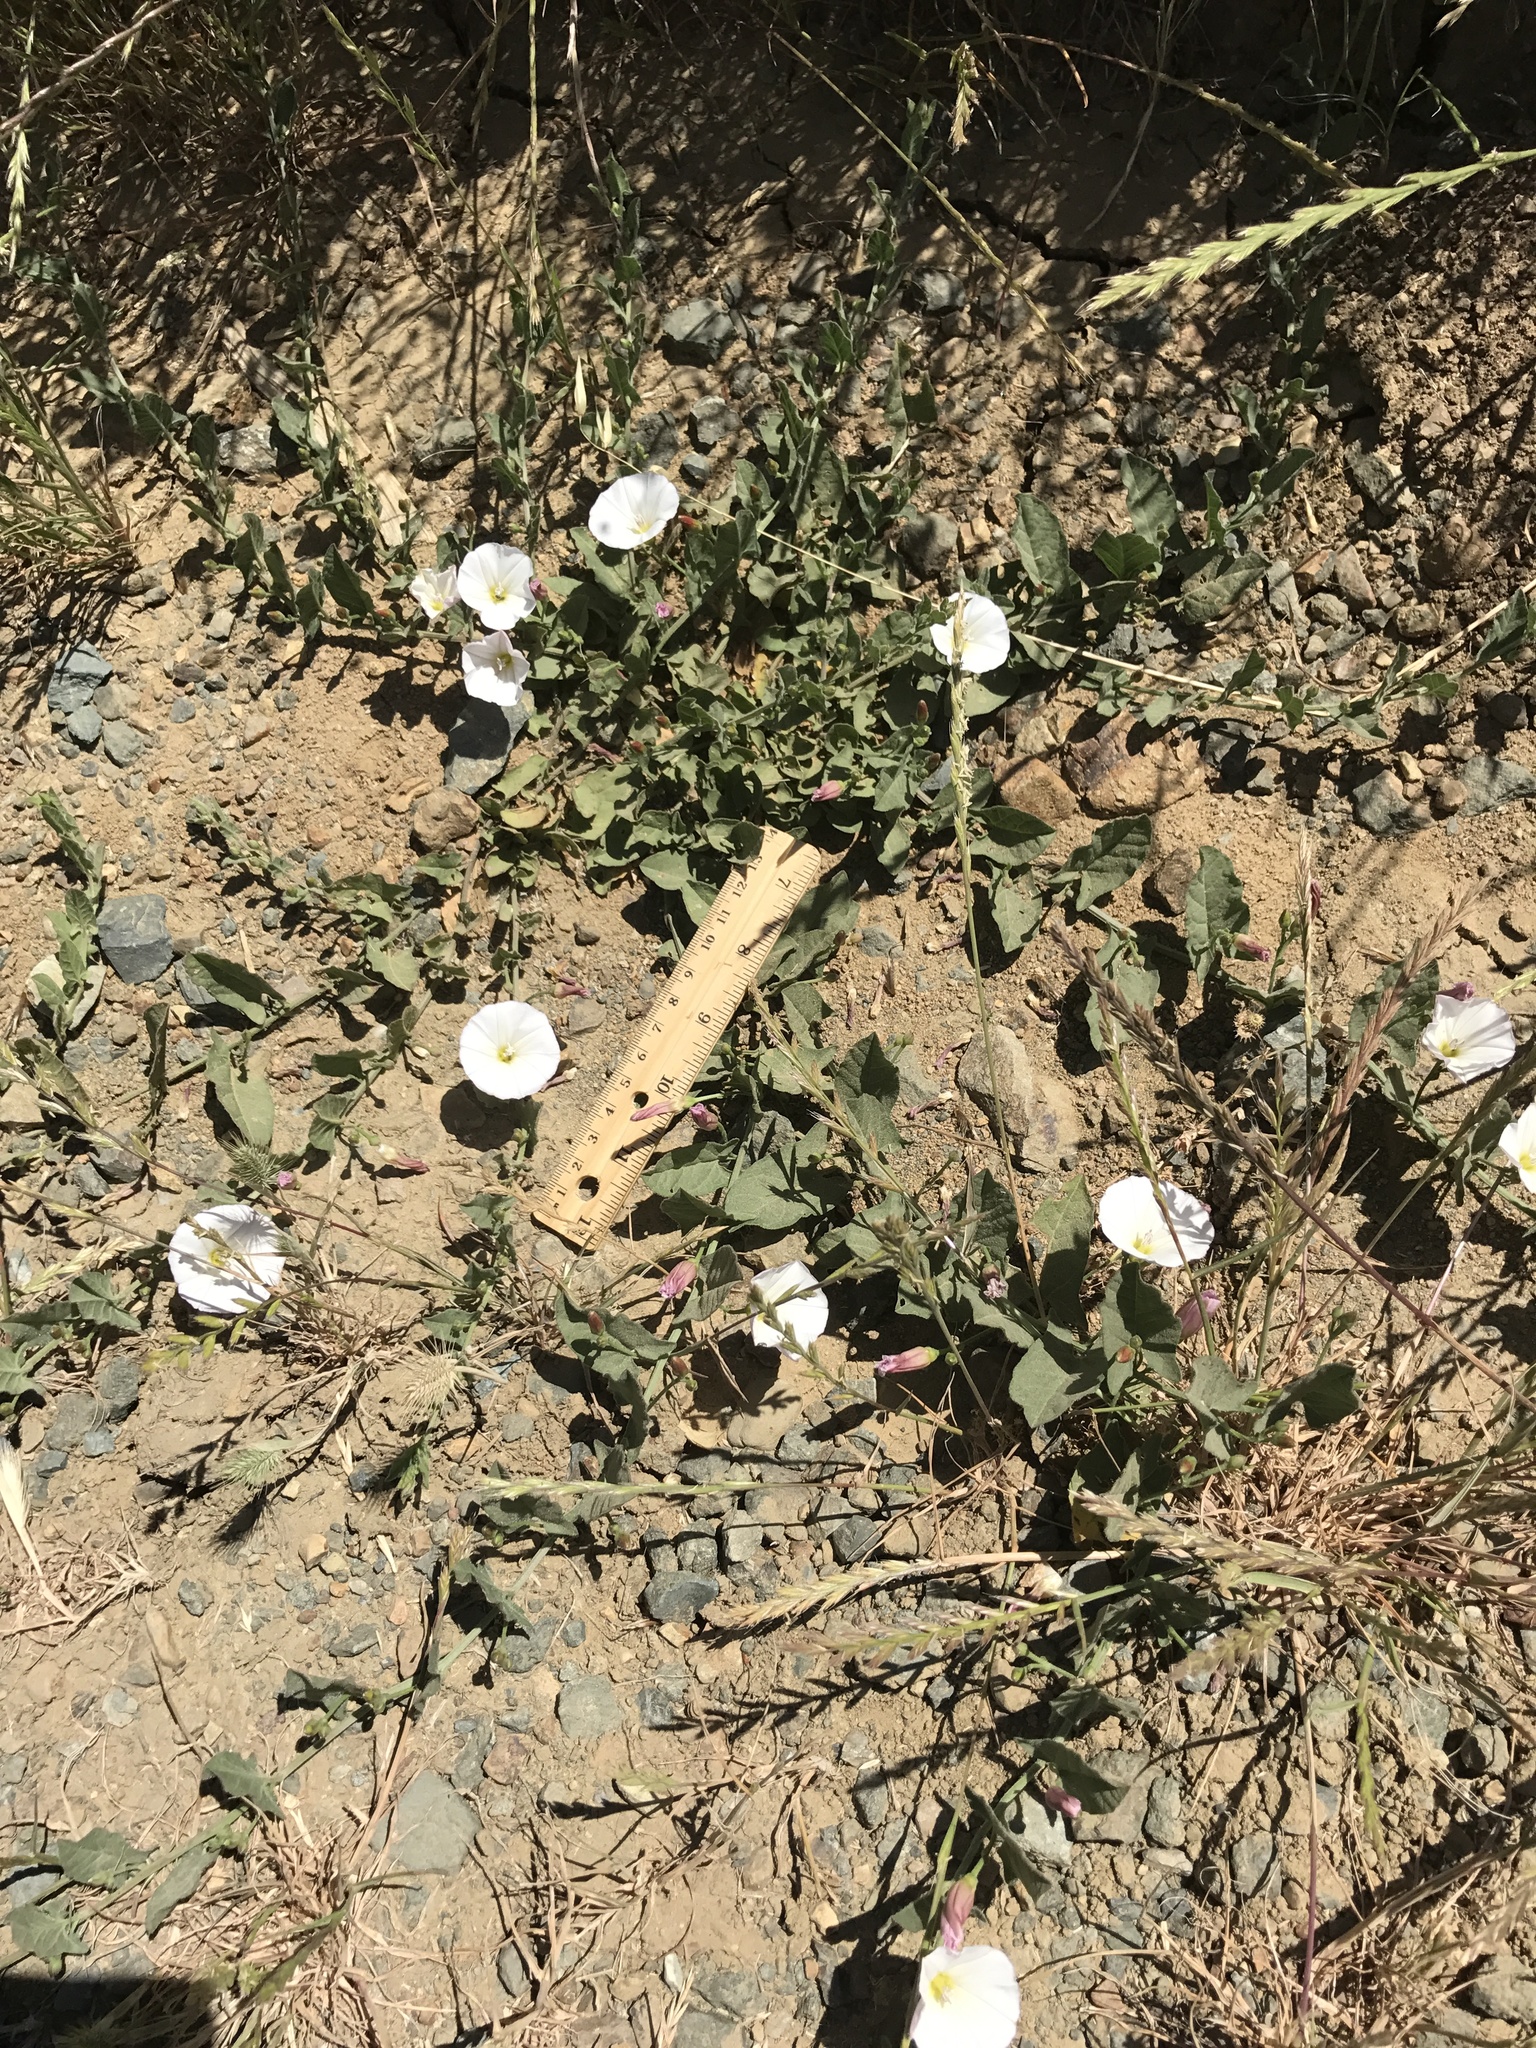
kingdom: Plantae
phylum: Tracheophyta
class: Magnoliopsida
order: Solanales
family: Convolvulaceae
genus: Convolvulus
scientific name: Convolvulus arvensis
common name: Field bindweed
